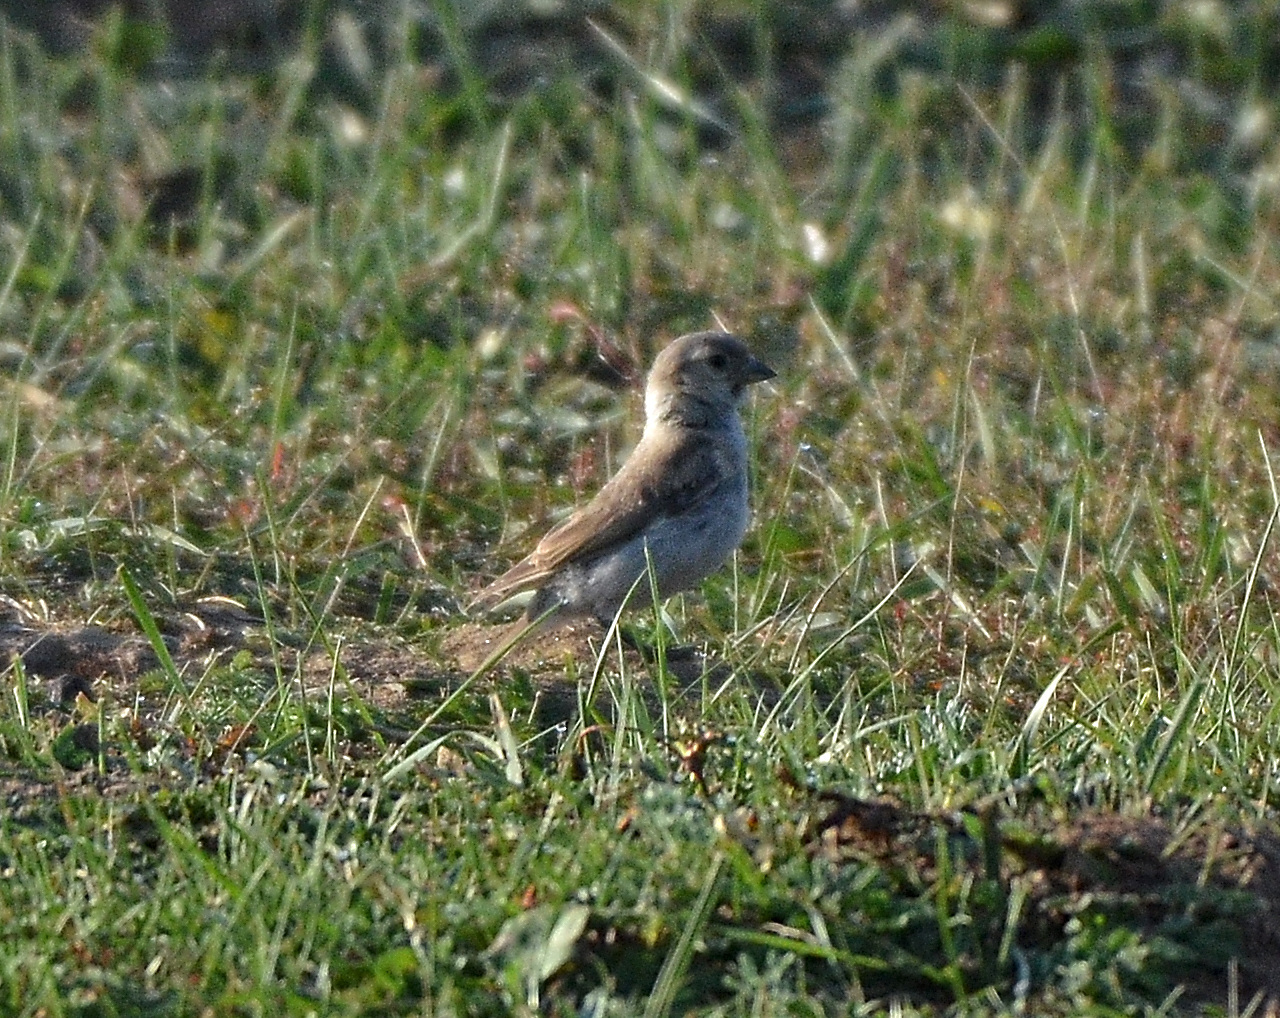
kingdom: Animalia
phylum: Chordata
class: Aves
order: Passeriformes
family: Passeridae
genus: Pyrgilauda
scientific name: Pyrgilauda davidiana
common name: Pere david's snowfinch
